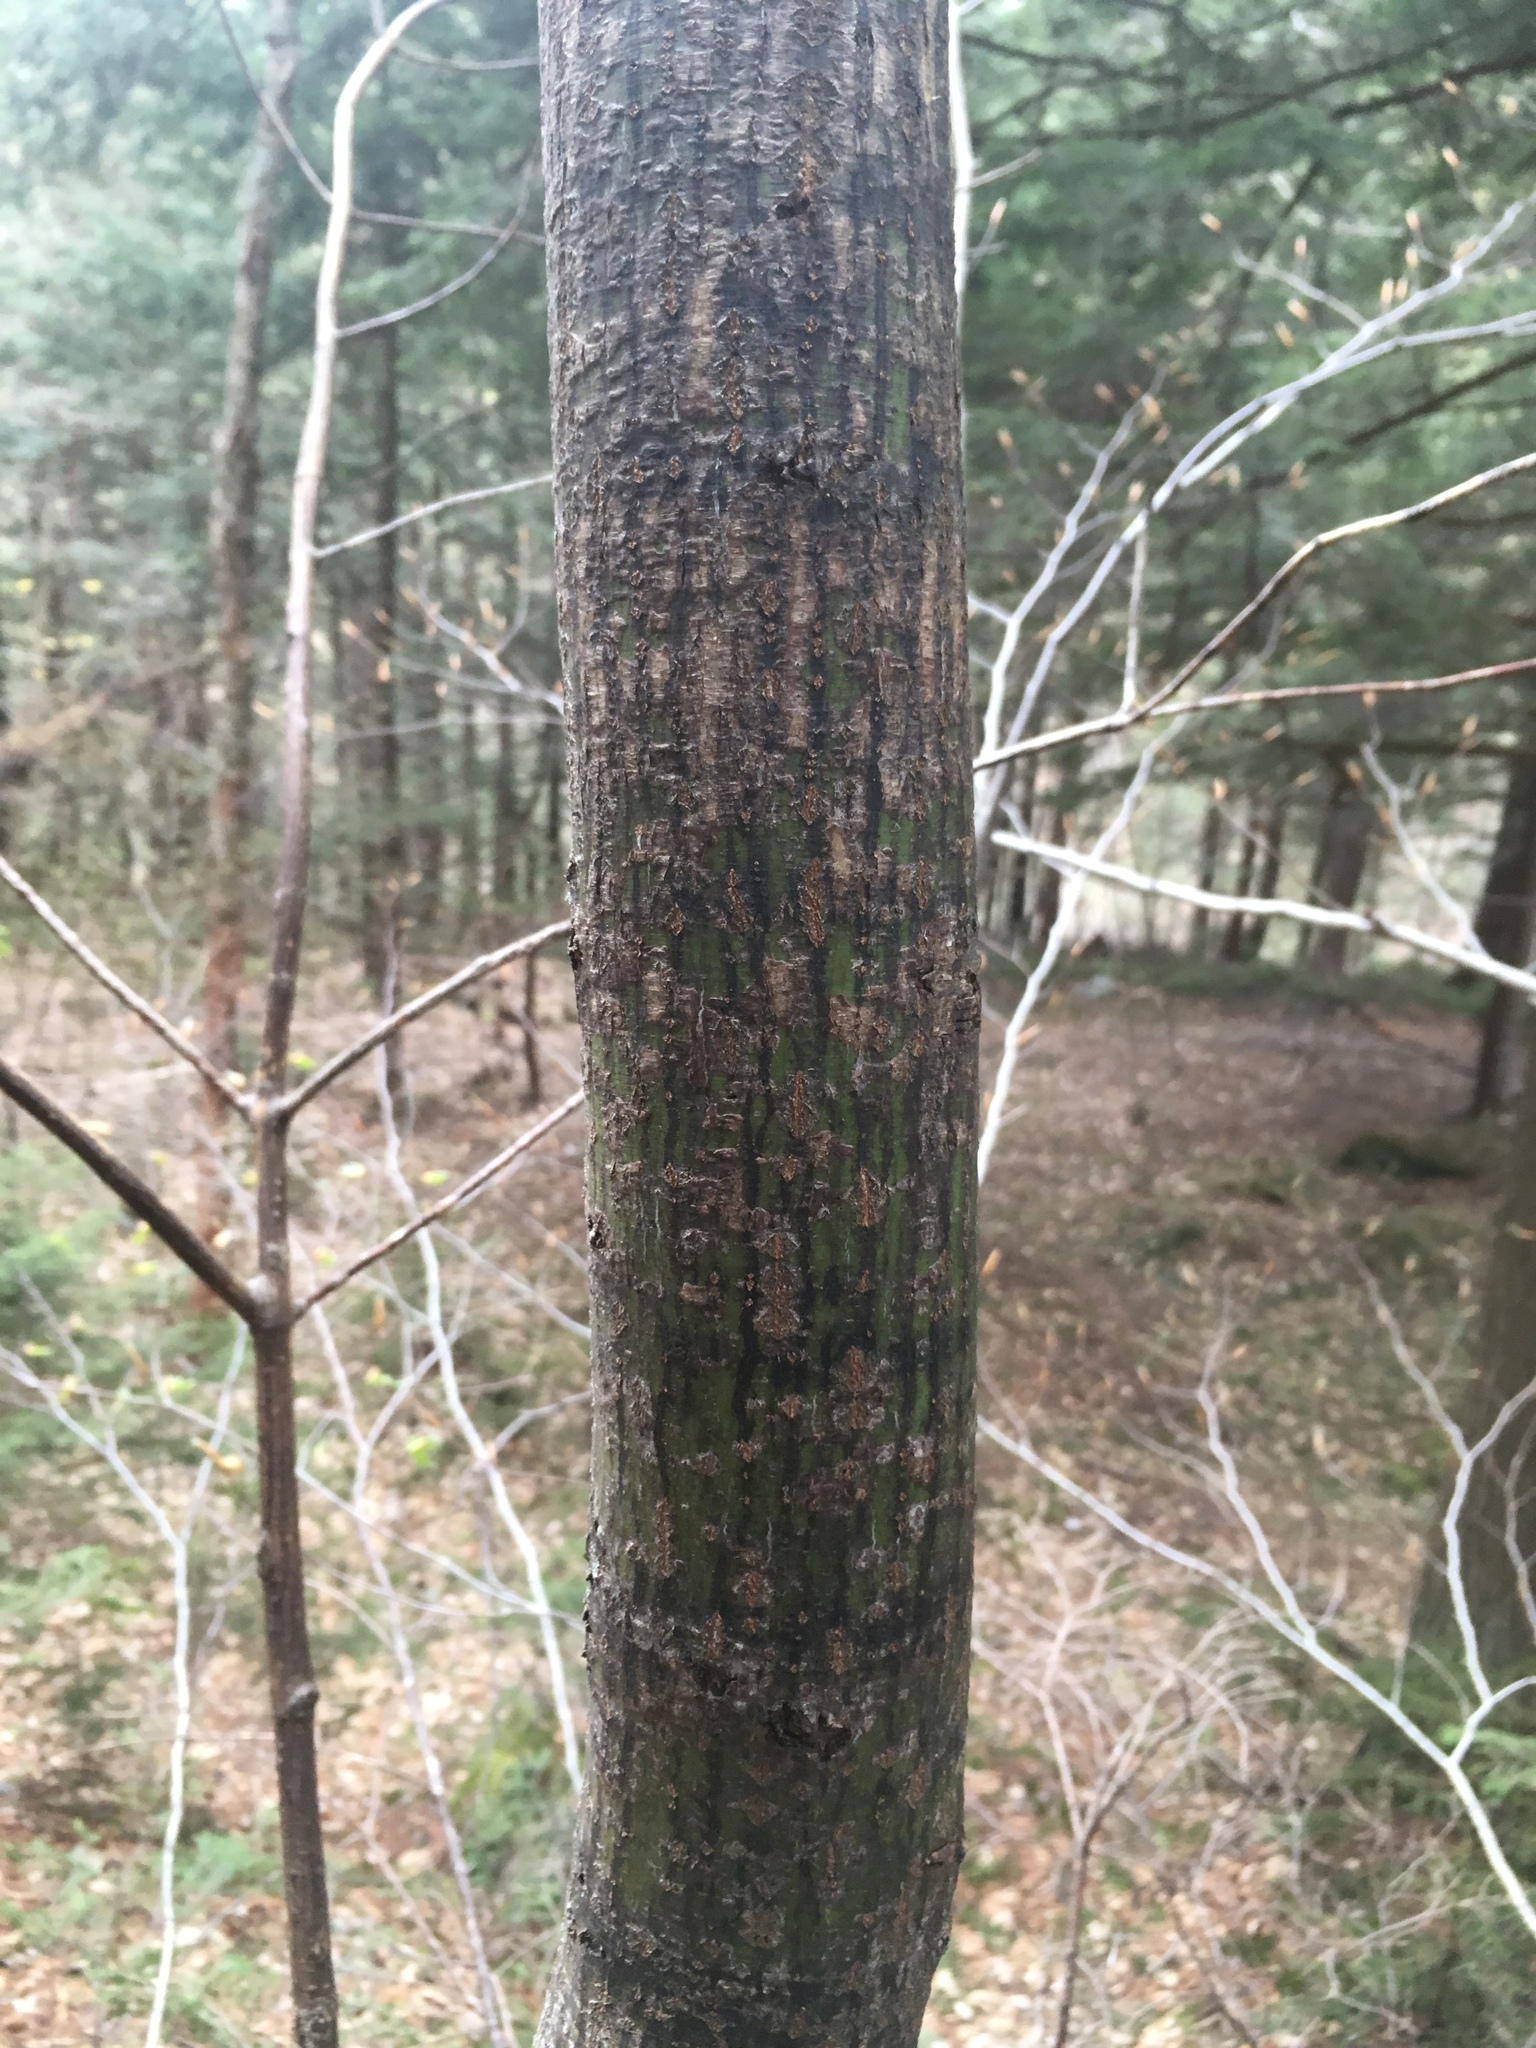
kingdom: Plantae
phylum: Tracheophyta
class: Magnoliopsida
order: Sapindales
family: Sapindaceae
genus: Acer
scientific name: Acer pensylvanicum
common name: Moosewood
